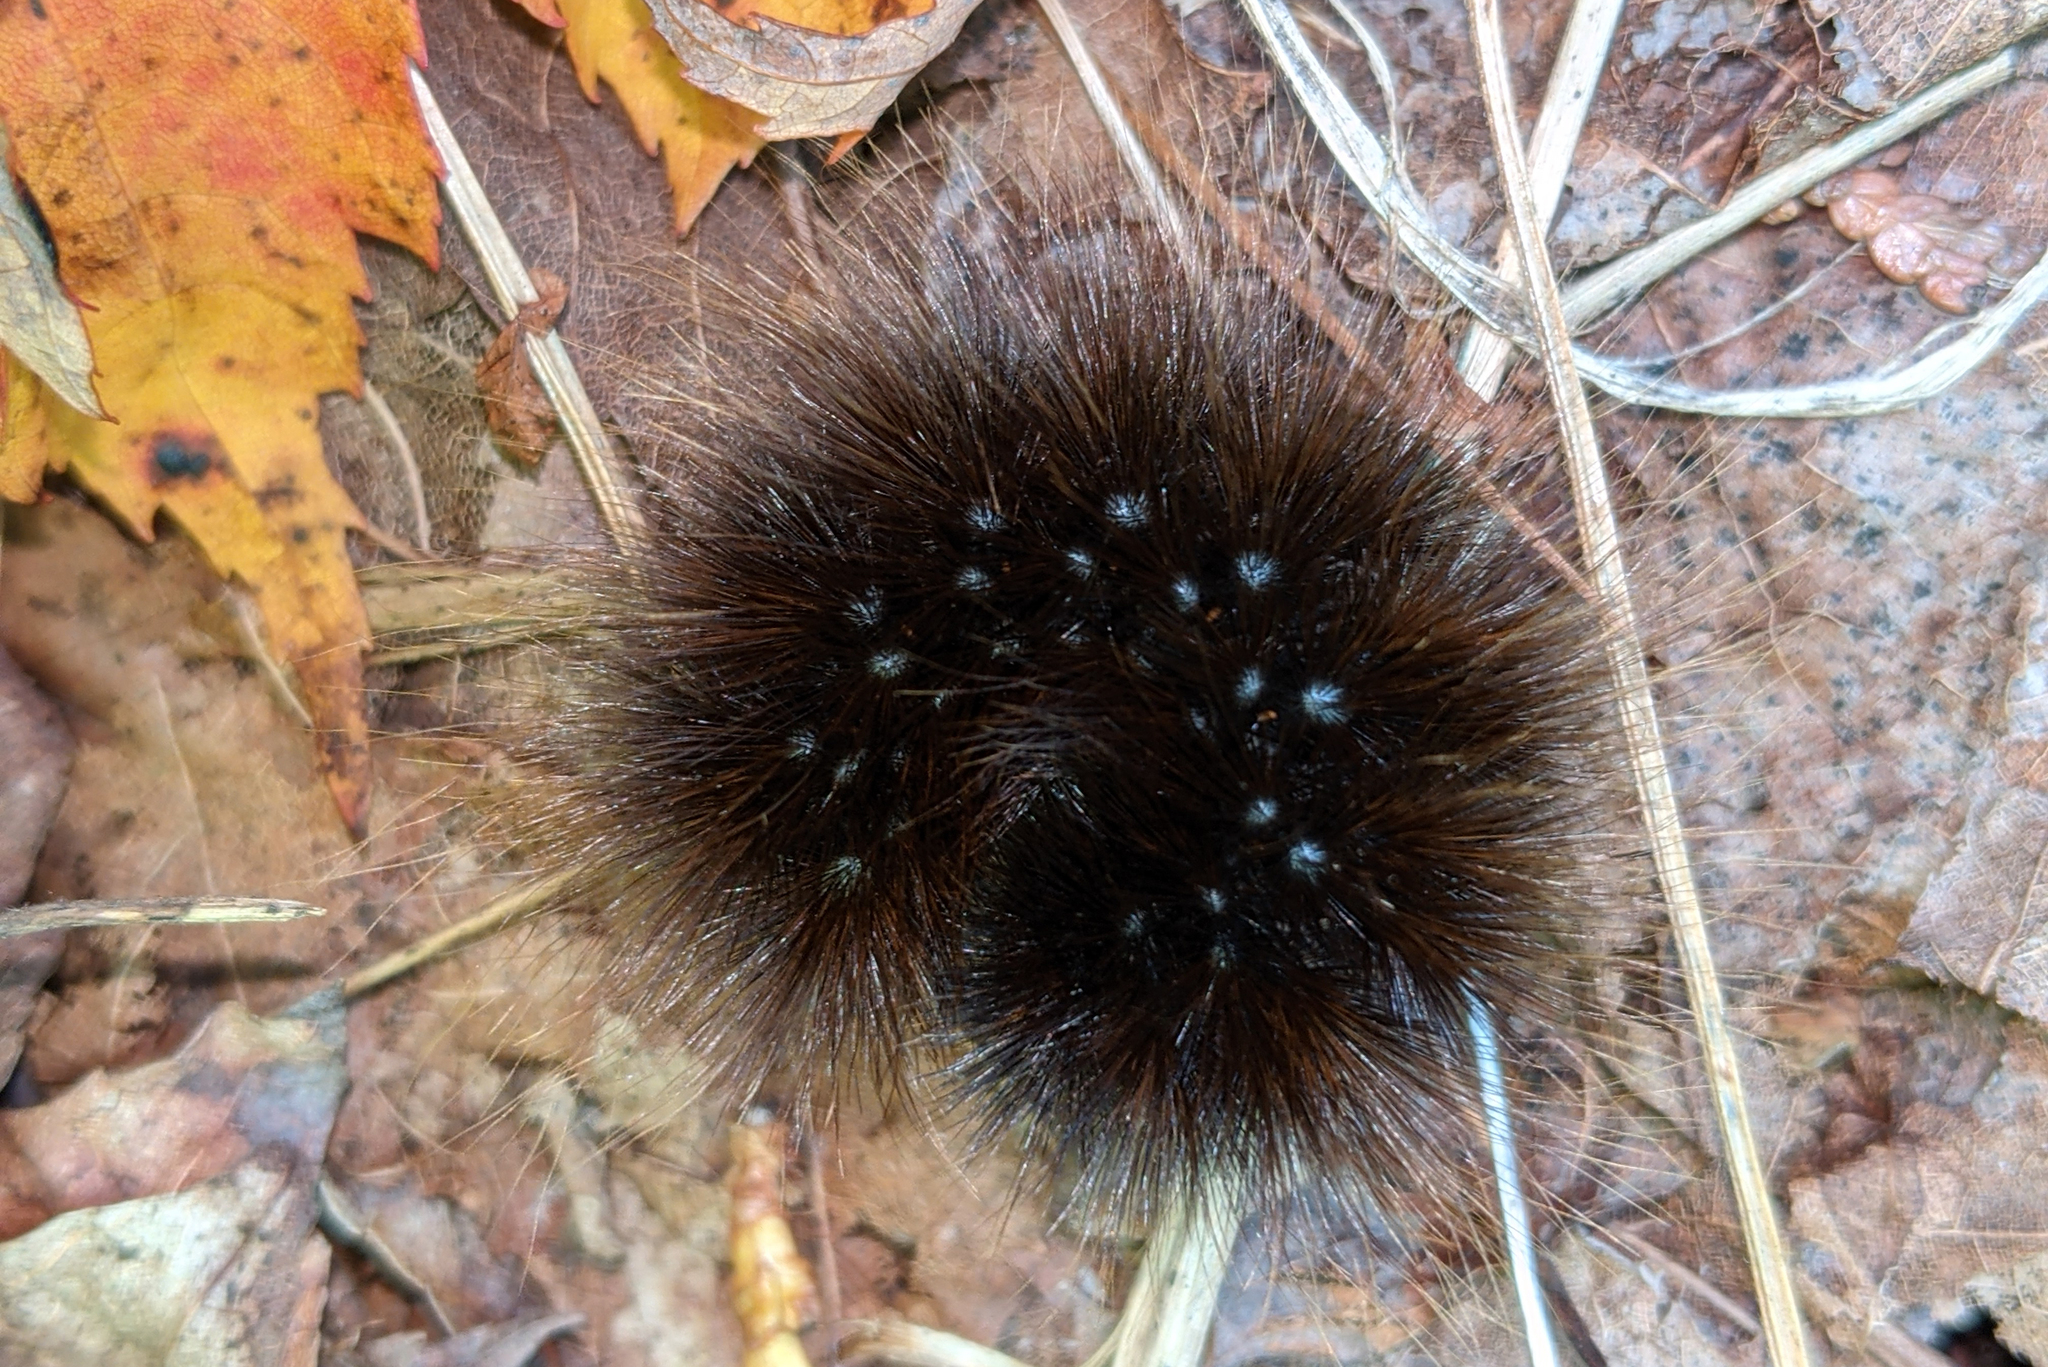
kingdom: Animalia
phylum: Arthropoda
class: Insecta
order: Lepidoptera
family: Erebidae
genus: Arctia
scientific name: Arctia parthenos
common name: St. lawrence tiger moth
